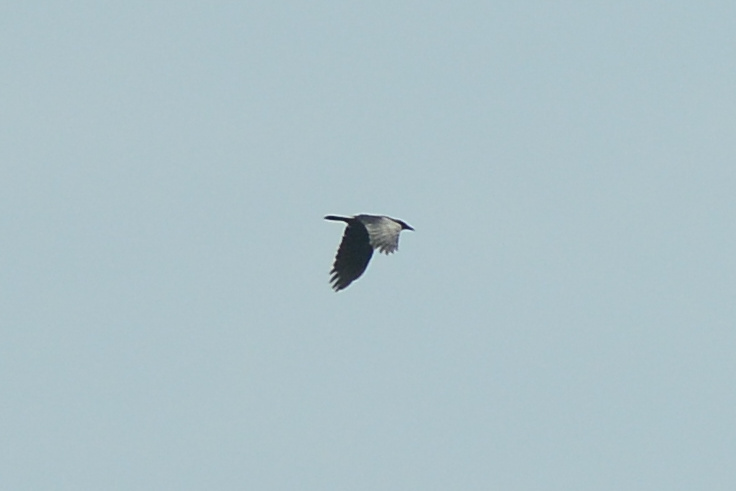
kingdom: Animalia
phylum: Chordata
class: Aves
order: Passeriformes
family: Corvidae
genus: Corvus
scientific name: Corvus tasmanicus
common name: Forest raven
